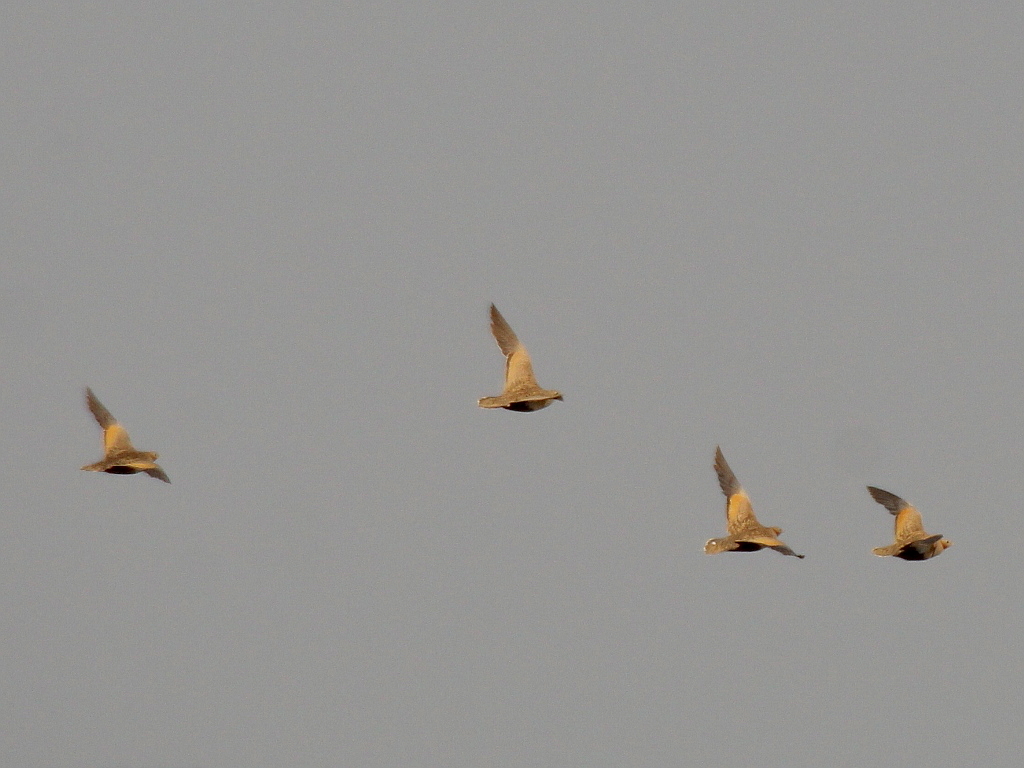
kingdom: Animalia
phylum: Chordata
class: Aves
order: Pteroclidiformes
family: Pteroclididae
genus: Pterocles
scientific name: Pterocles orientalis
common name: Black-bellied sandgrouse
